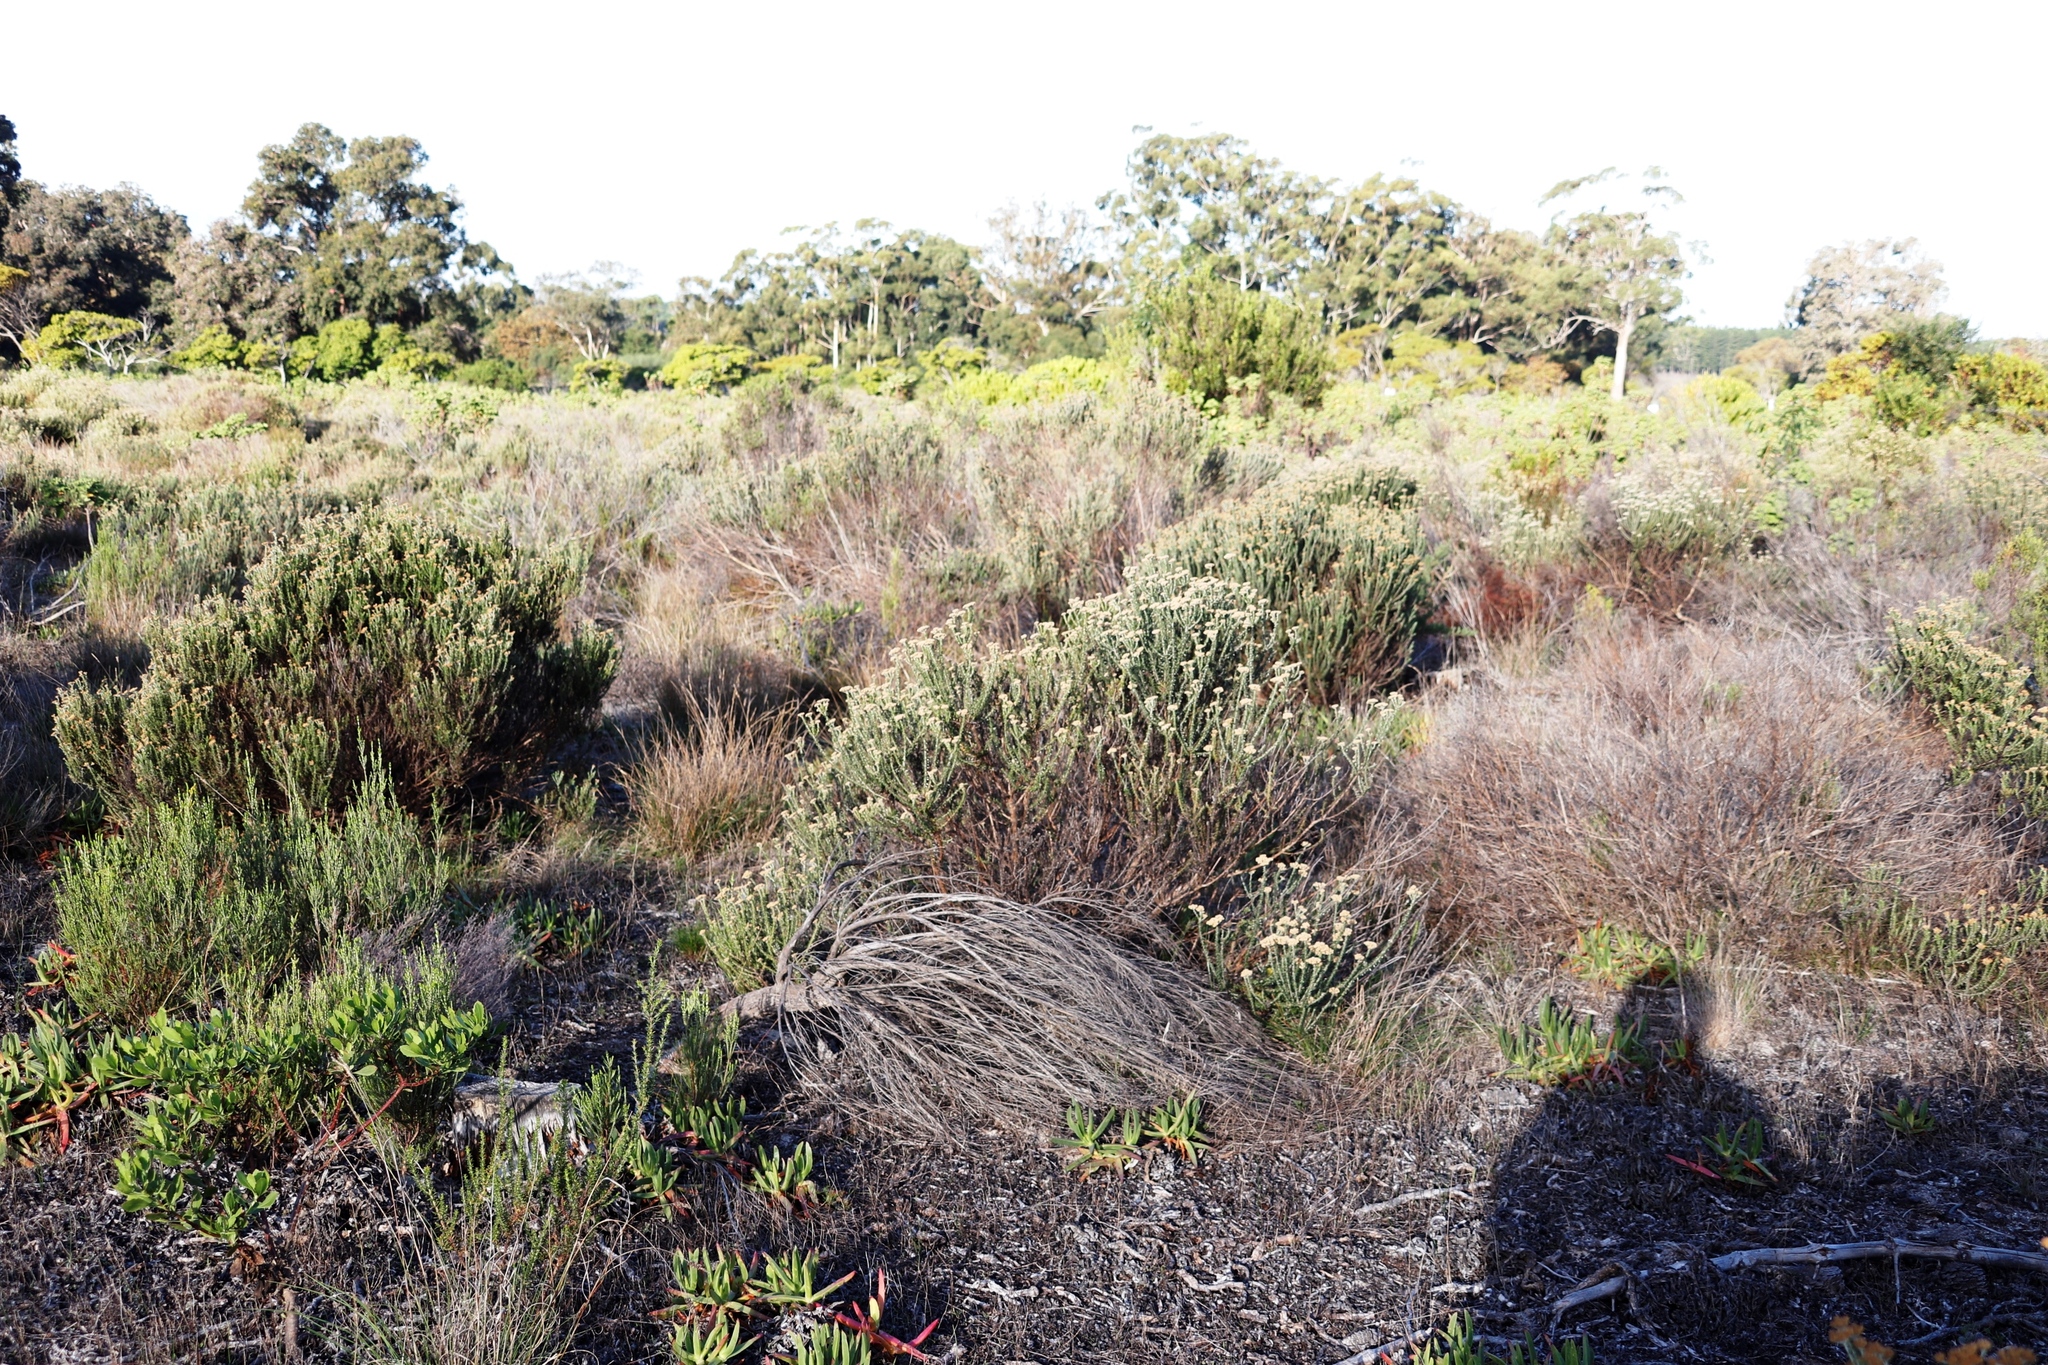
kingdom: Plantae
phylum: Tracheophyta
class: Magnoliopsida
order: Asterales
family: Asteraceae
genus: Metalasia
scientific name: Metalasia densa
